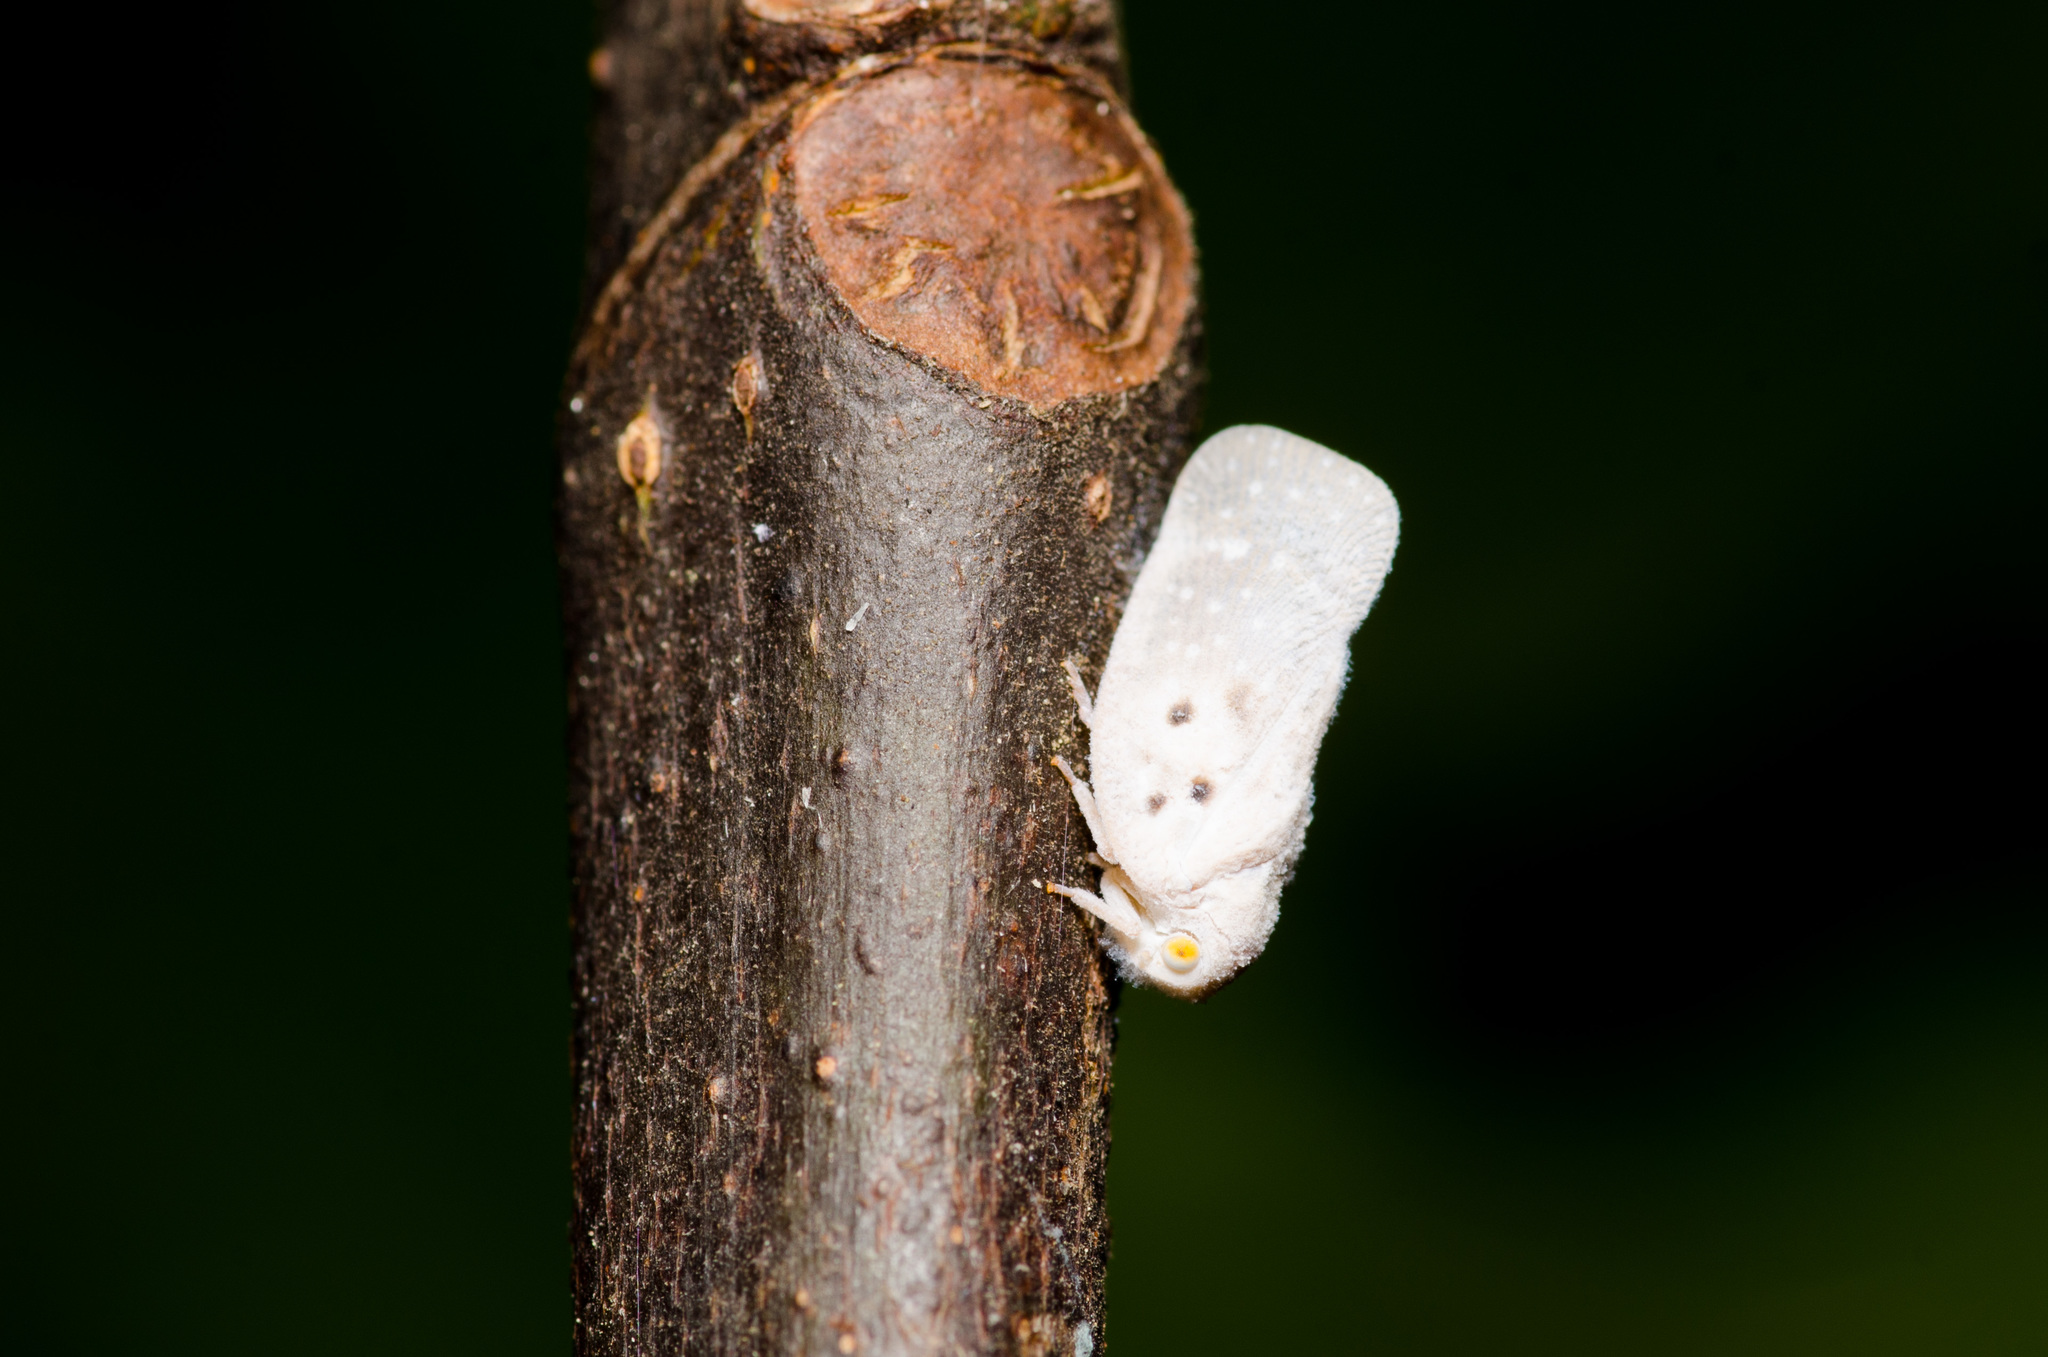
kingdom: Animalia
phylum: Arthropoda
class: Insecta
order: Hemiptera
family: Flatidae
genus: Metcalfa
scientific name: Metcalfa pruinosa
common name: Citrus flatid planthopper
